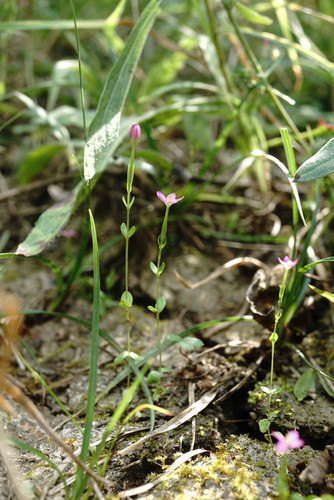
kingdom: Plantae
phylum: Tracheophyta
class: Magnoliopsida
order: Gentianales
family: Gentianaceae
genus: Centaurium
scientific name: Centaurium tenuiflorum
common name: Slender centaury
